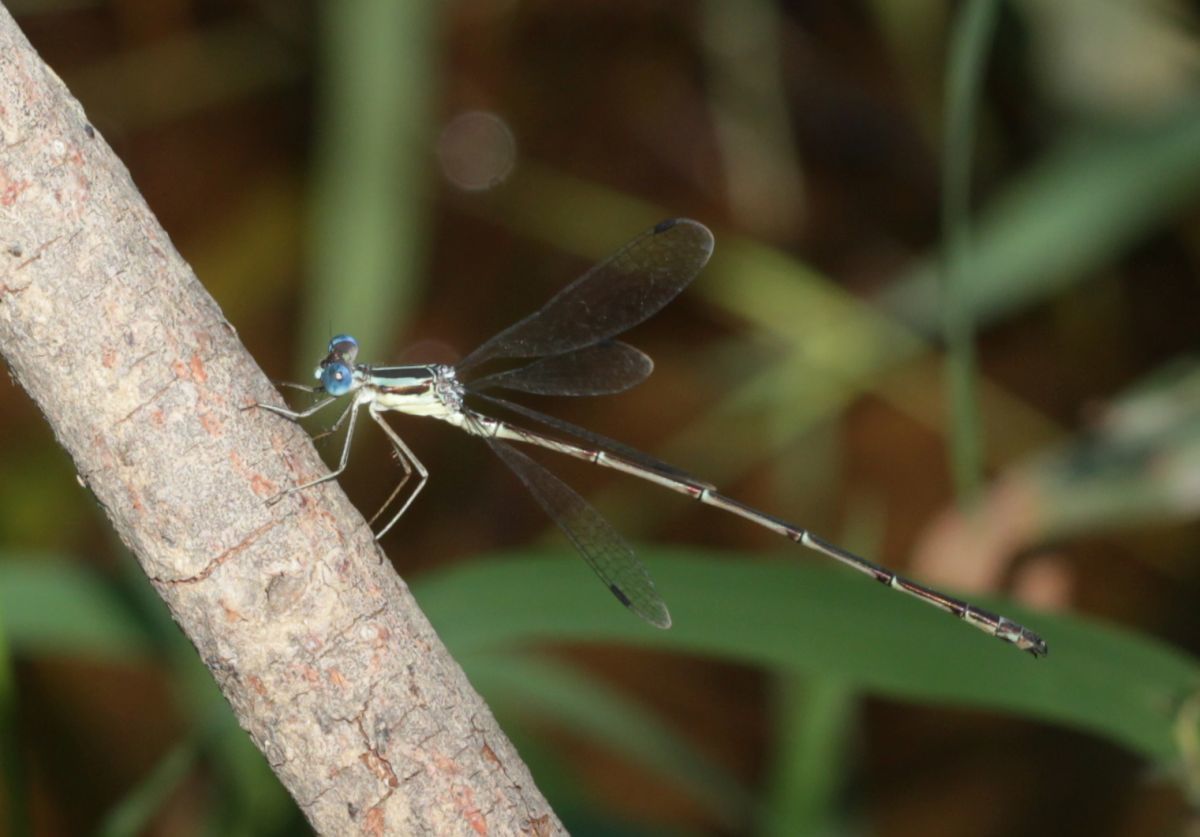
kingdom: Animalia
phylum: Arthropoda
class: Insecta
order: Odonata
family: Lestidae
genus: Lestes
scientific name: Lestes rectangularis
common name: Slender spreadwing
